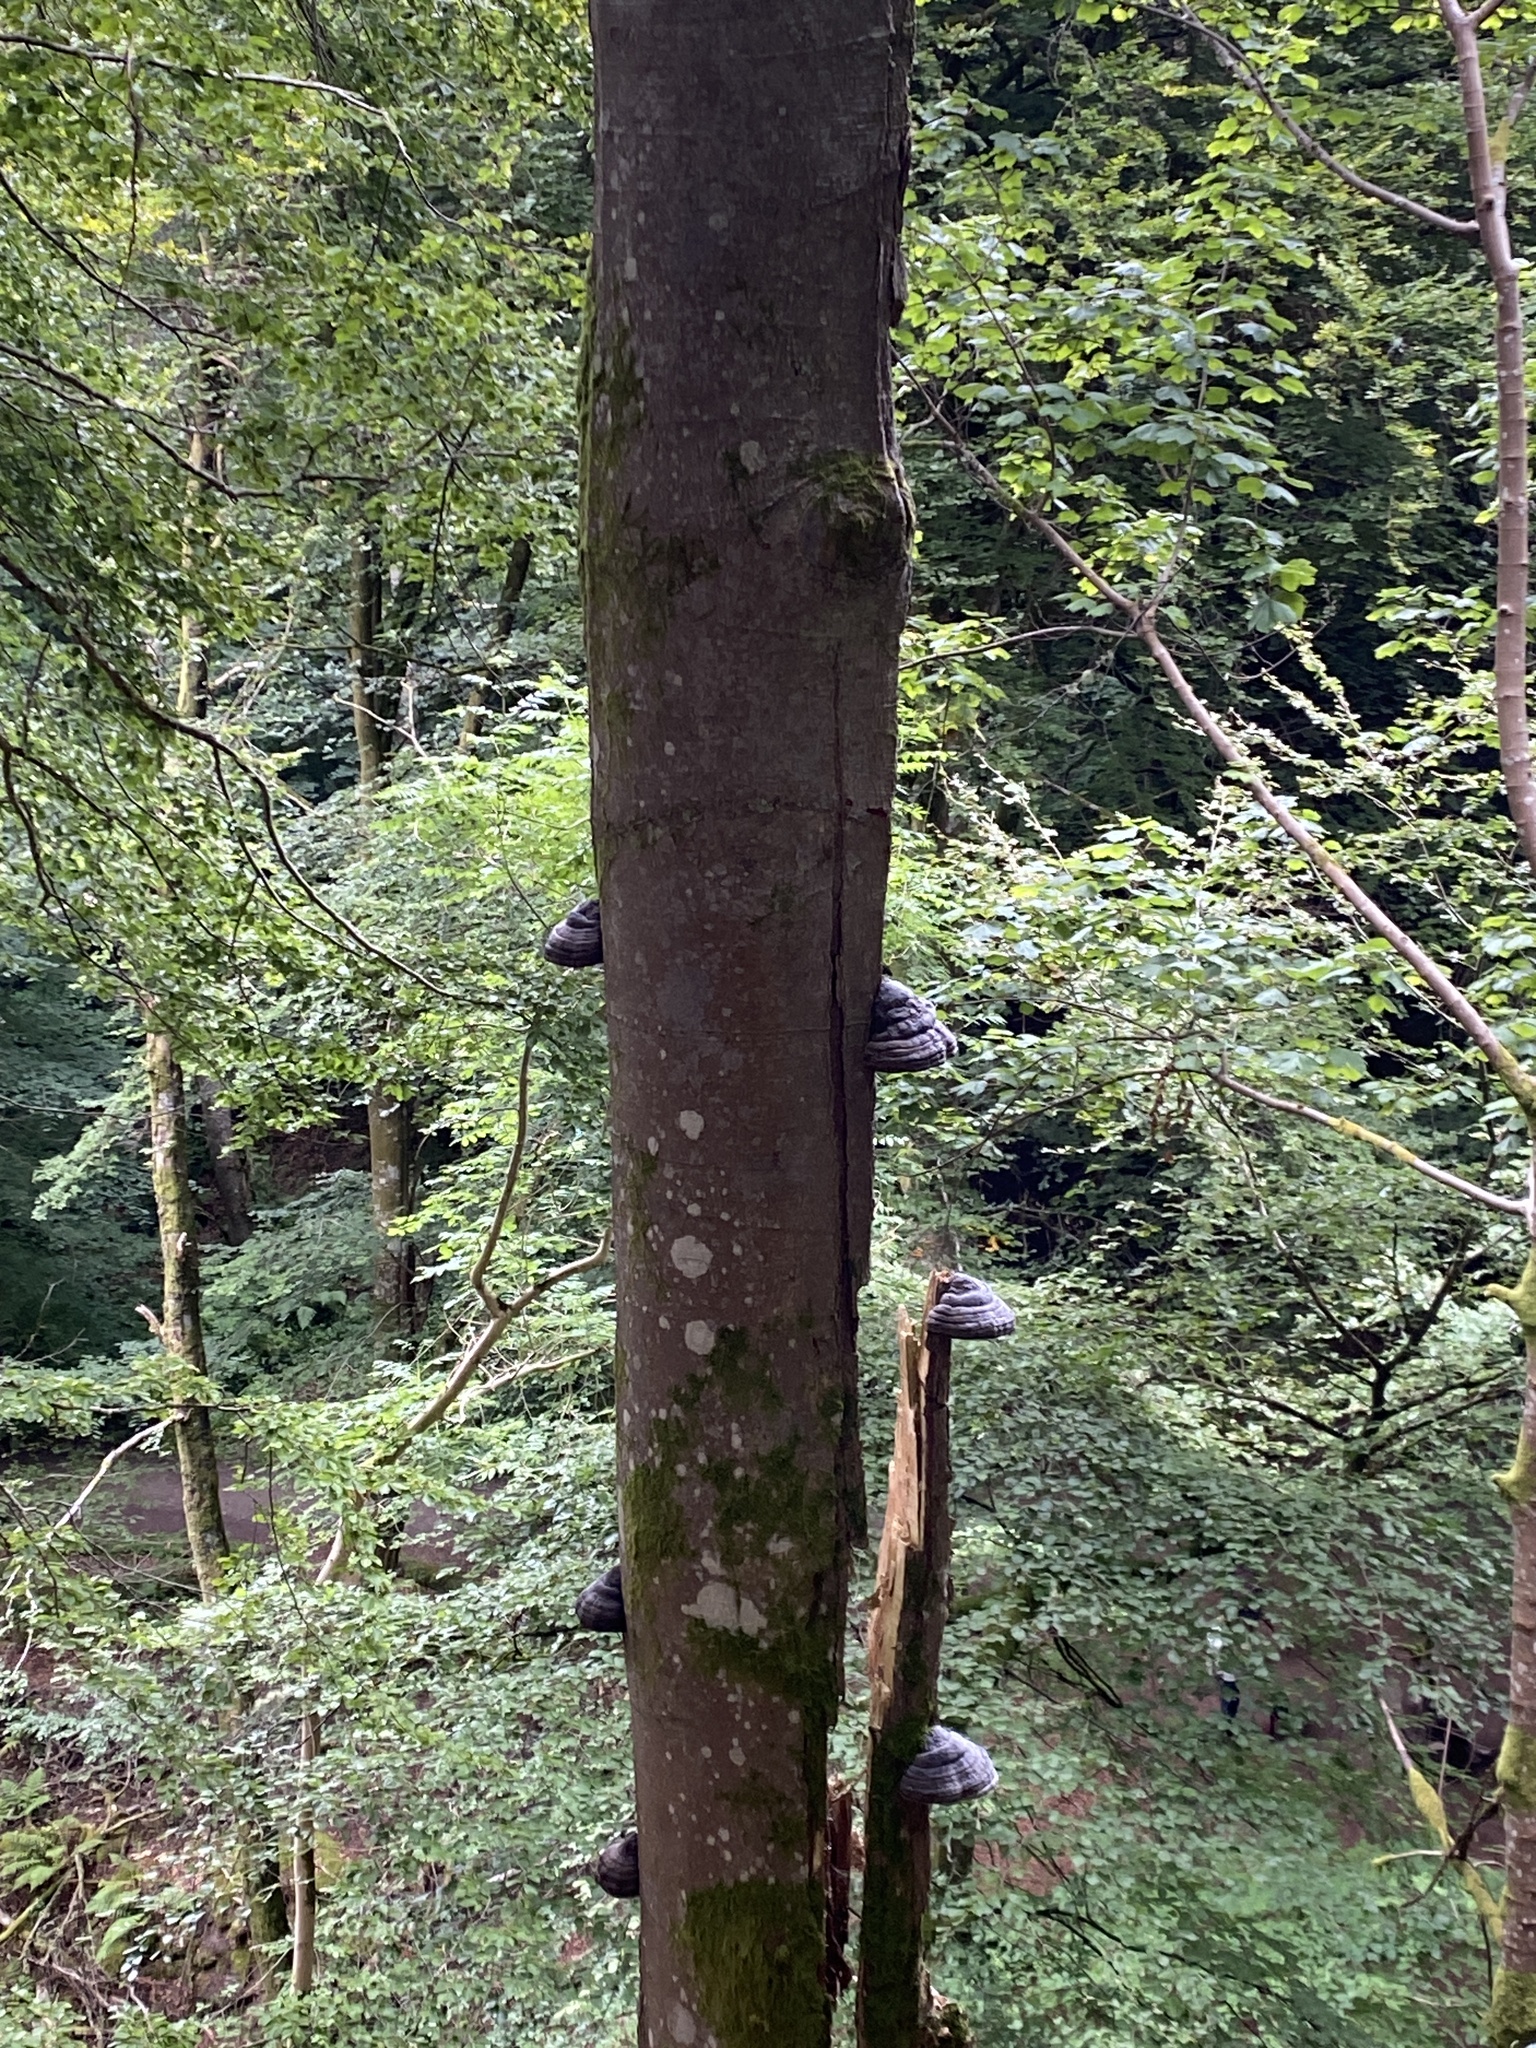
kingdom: Fungi
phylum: Basidiomycota
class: Agaricomycetes
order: Polyporales
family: Polyporaceae
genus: Fomes
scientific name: Fomes fomentarius
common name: Hoof fungus
